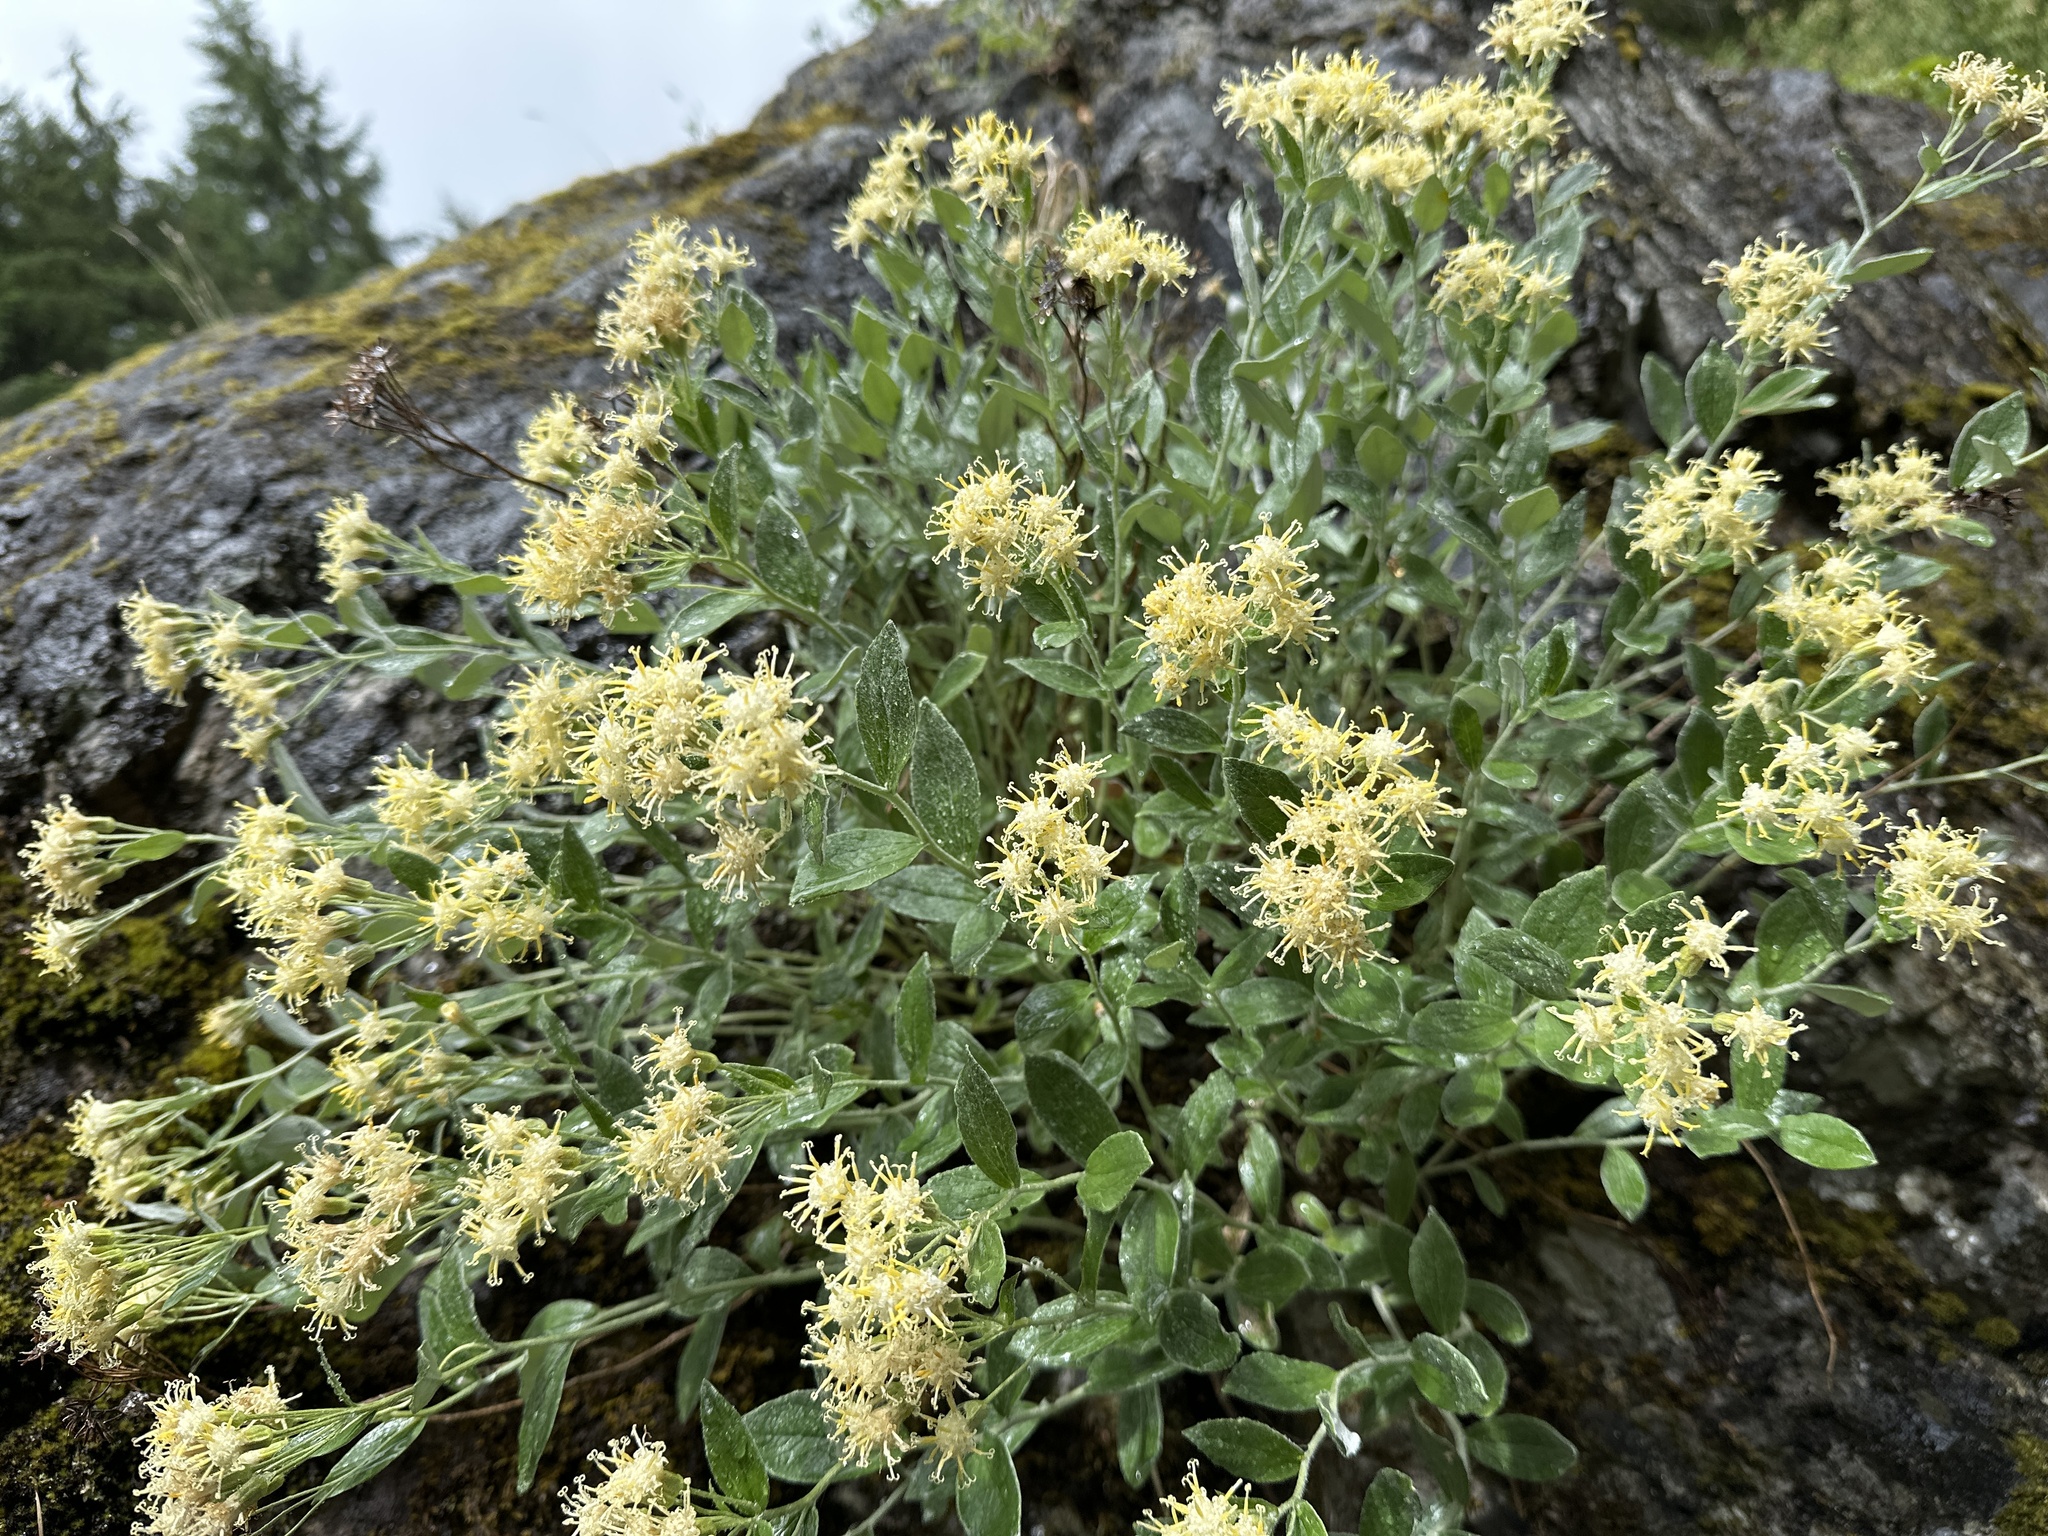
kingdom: Plantae
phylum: Tracheophyta
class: Magnoliopsida
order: Asterales
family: Asteraceae
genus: Luina
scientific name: Luina hypoleuca
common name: Little-leaved luina
